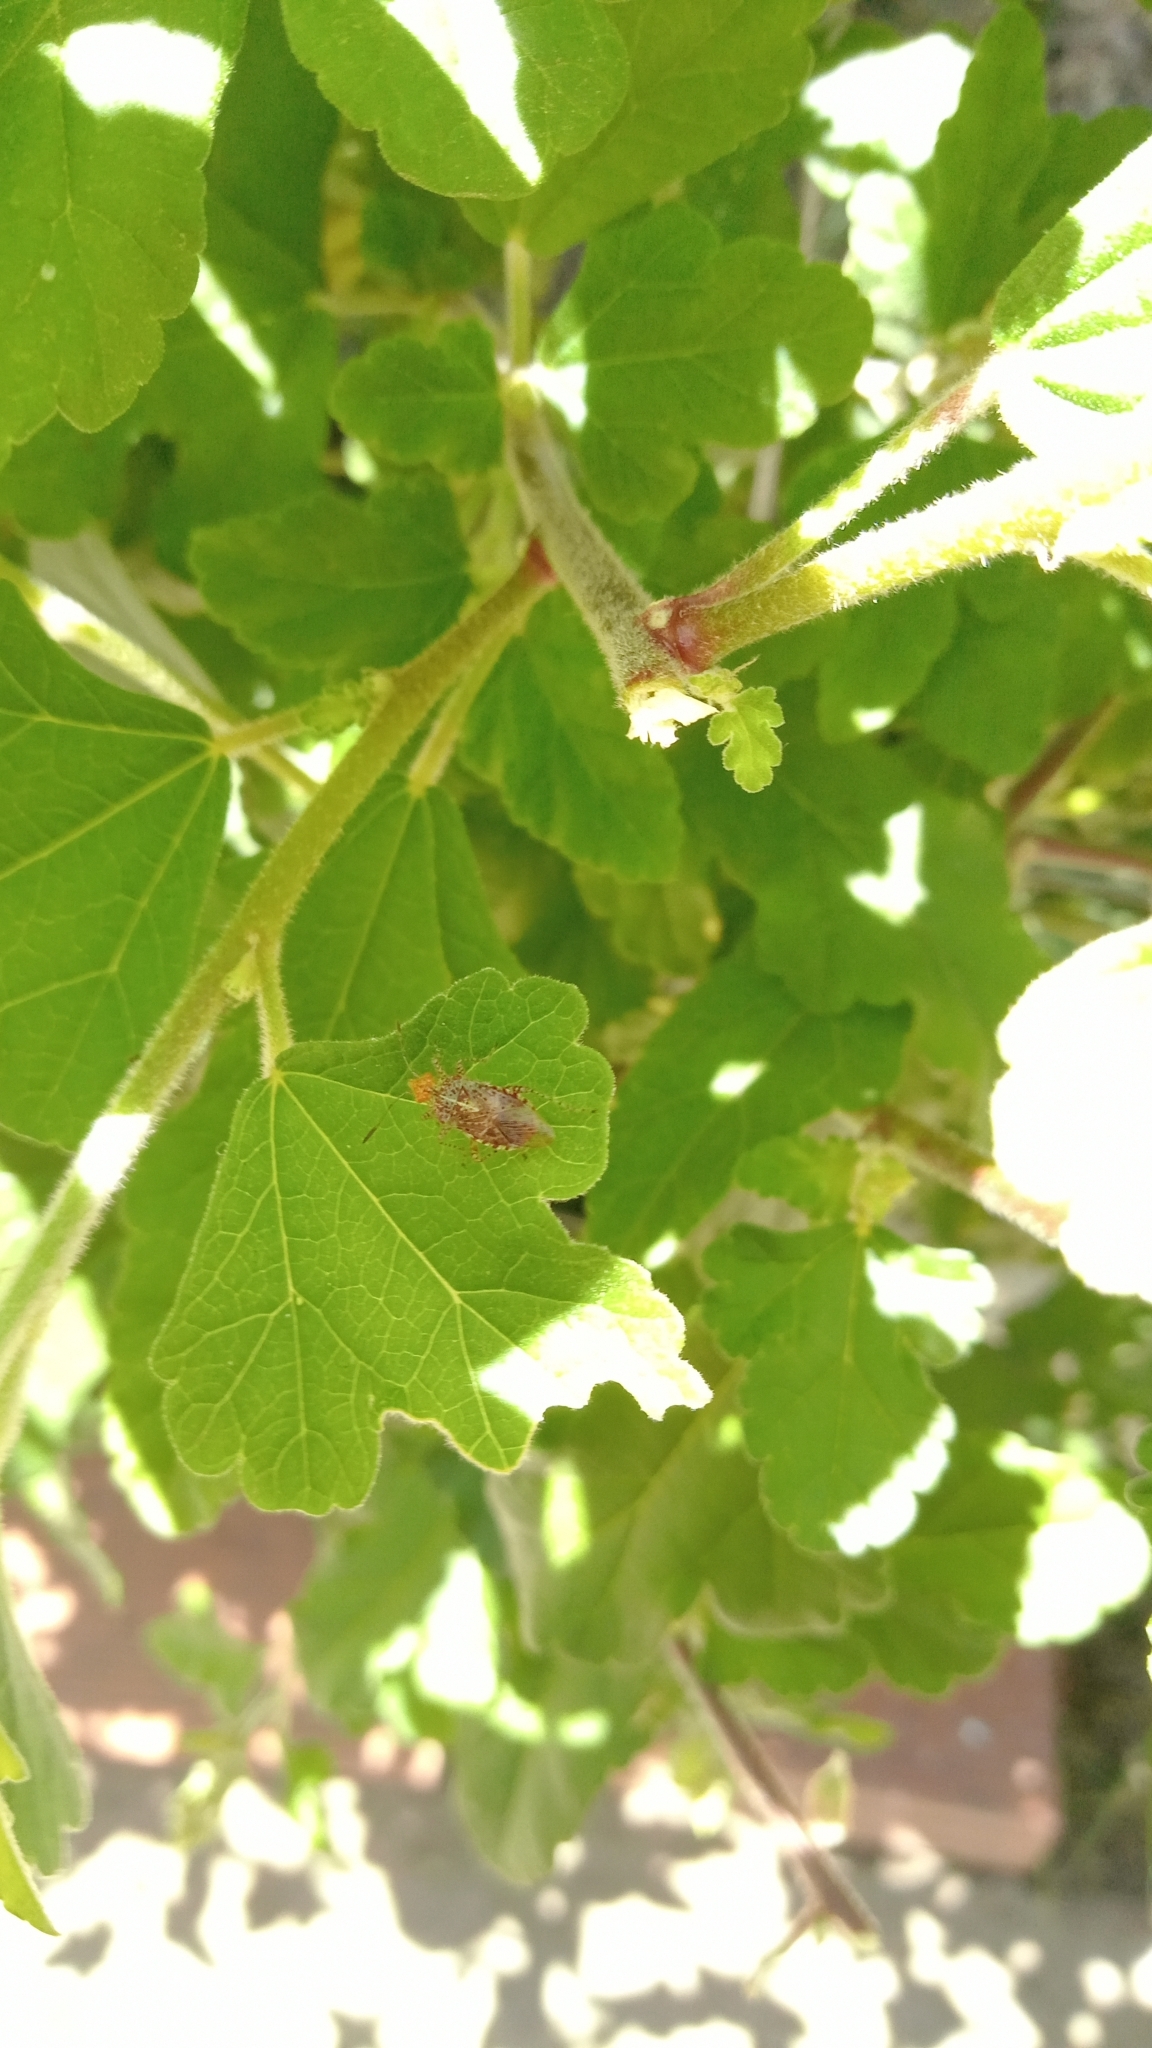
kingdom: Animalia
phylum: Arthropoda
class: Insecta
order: Hemiptera
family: Rhopalidae
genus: Niesthrea
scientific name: Niesthrea
